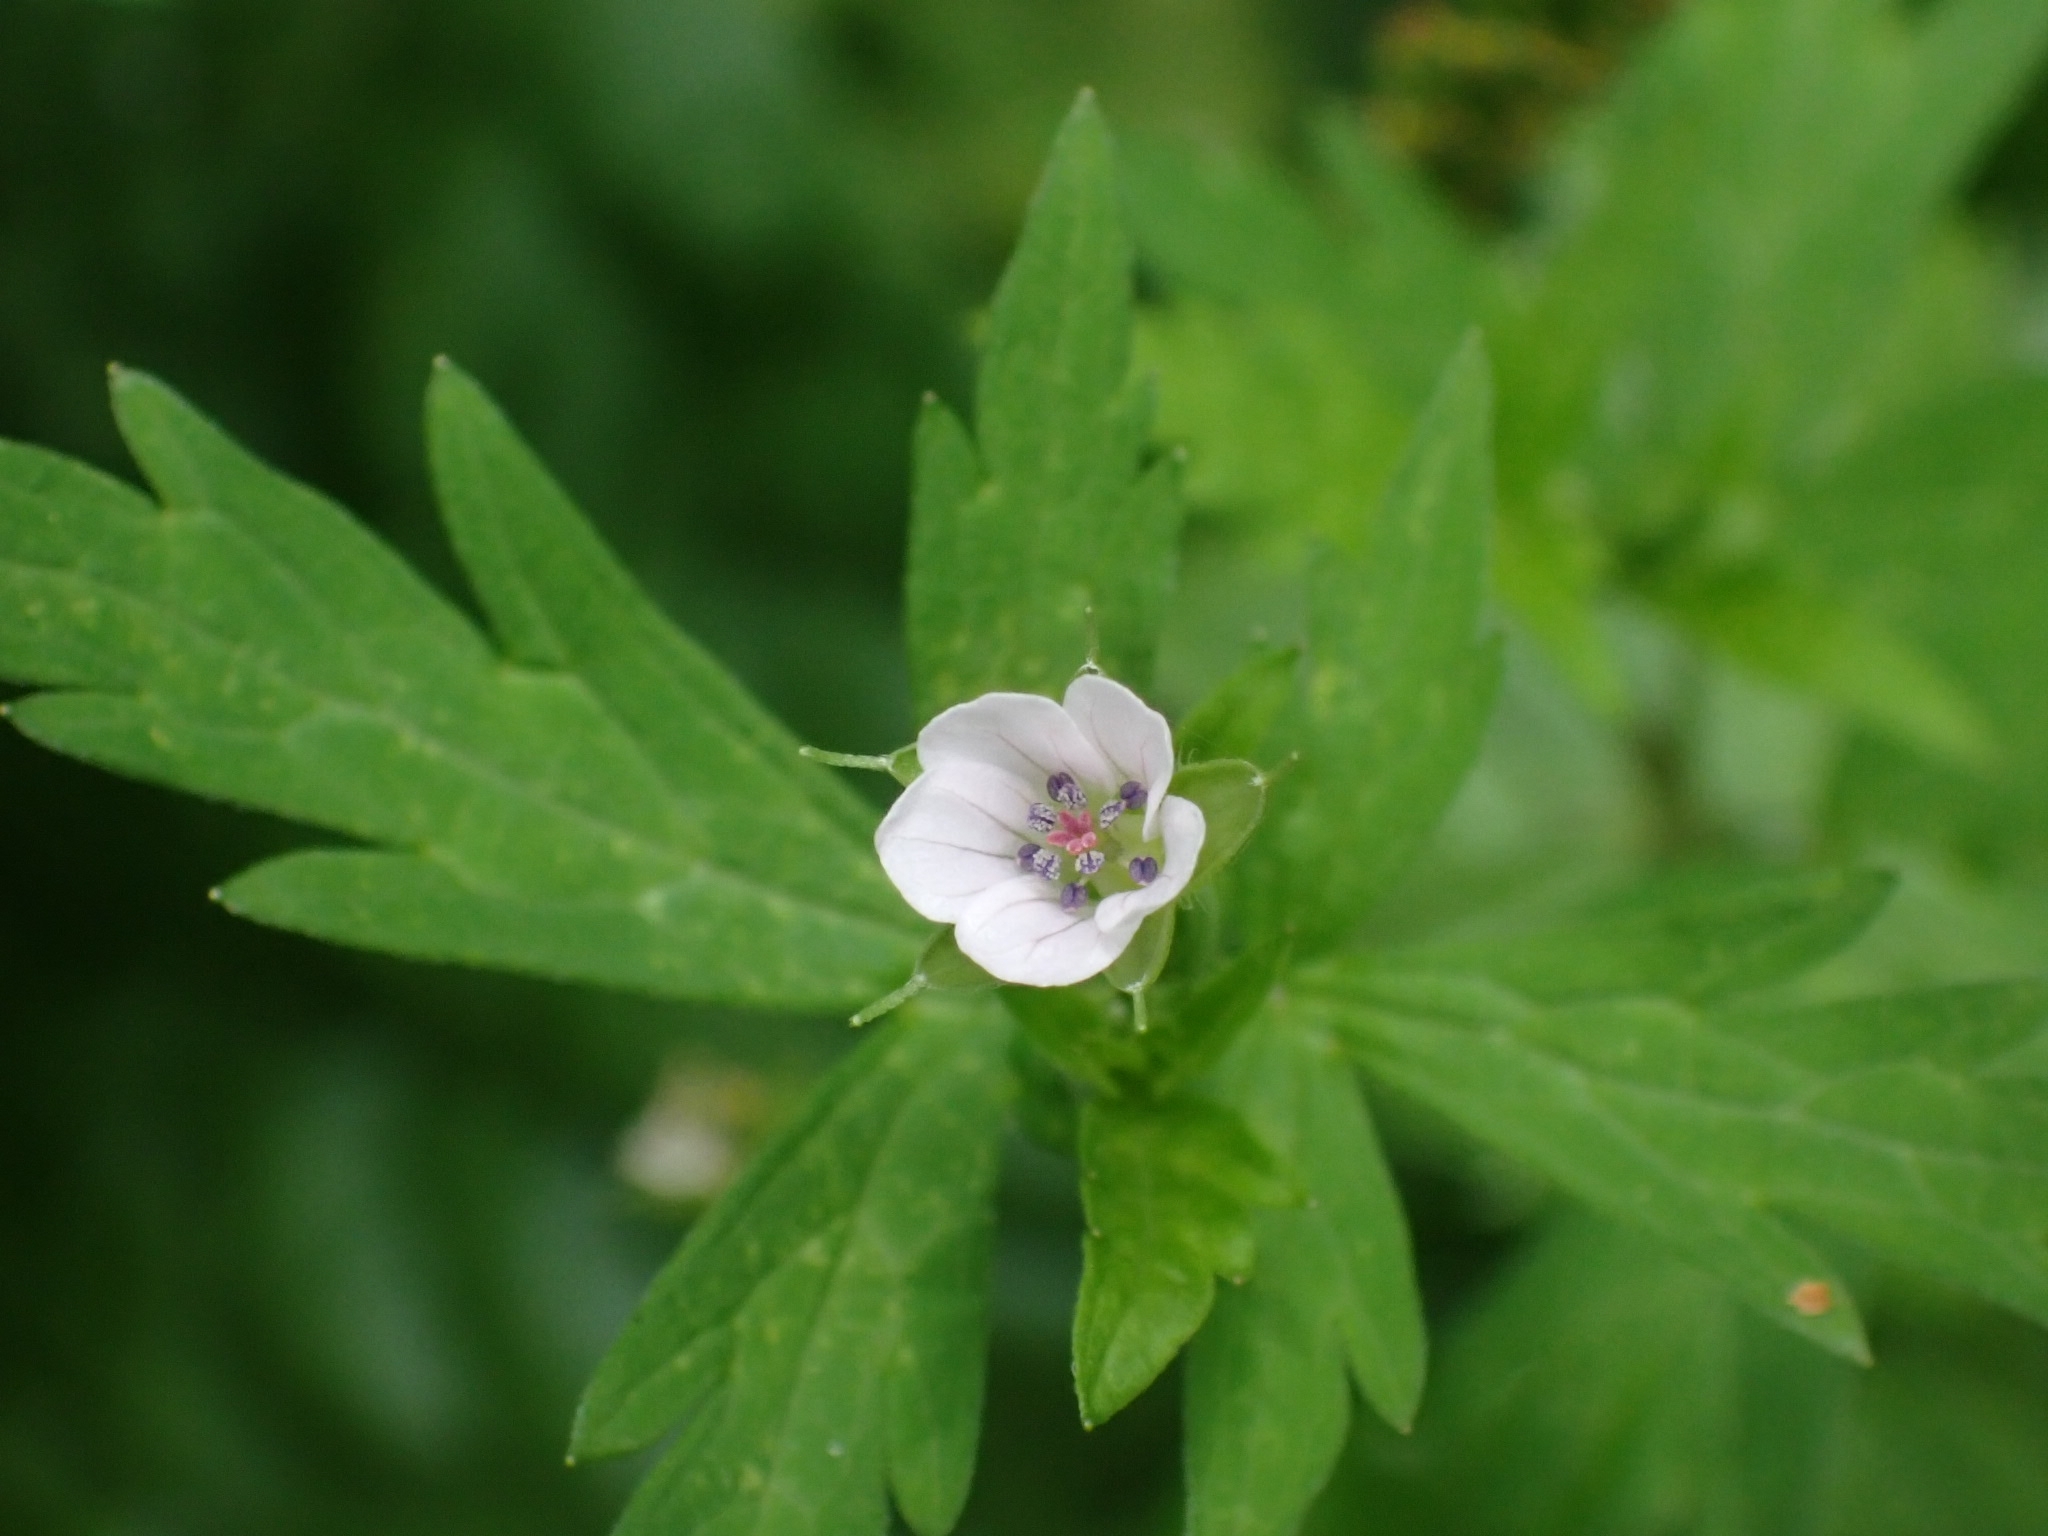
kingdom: Plantae
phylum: Tracheophyta
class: Magnoliopsida
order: Geraniales
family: Geraniaceae
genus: Geranium
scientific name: Geranium sibiricum
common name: Siberian crane's-bill
